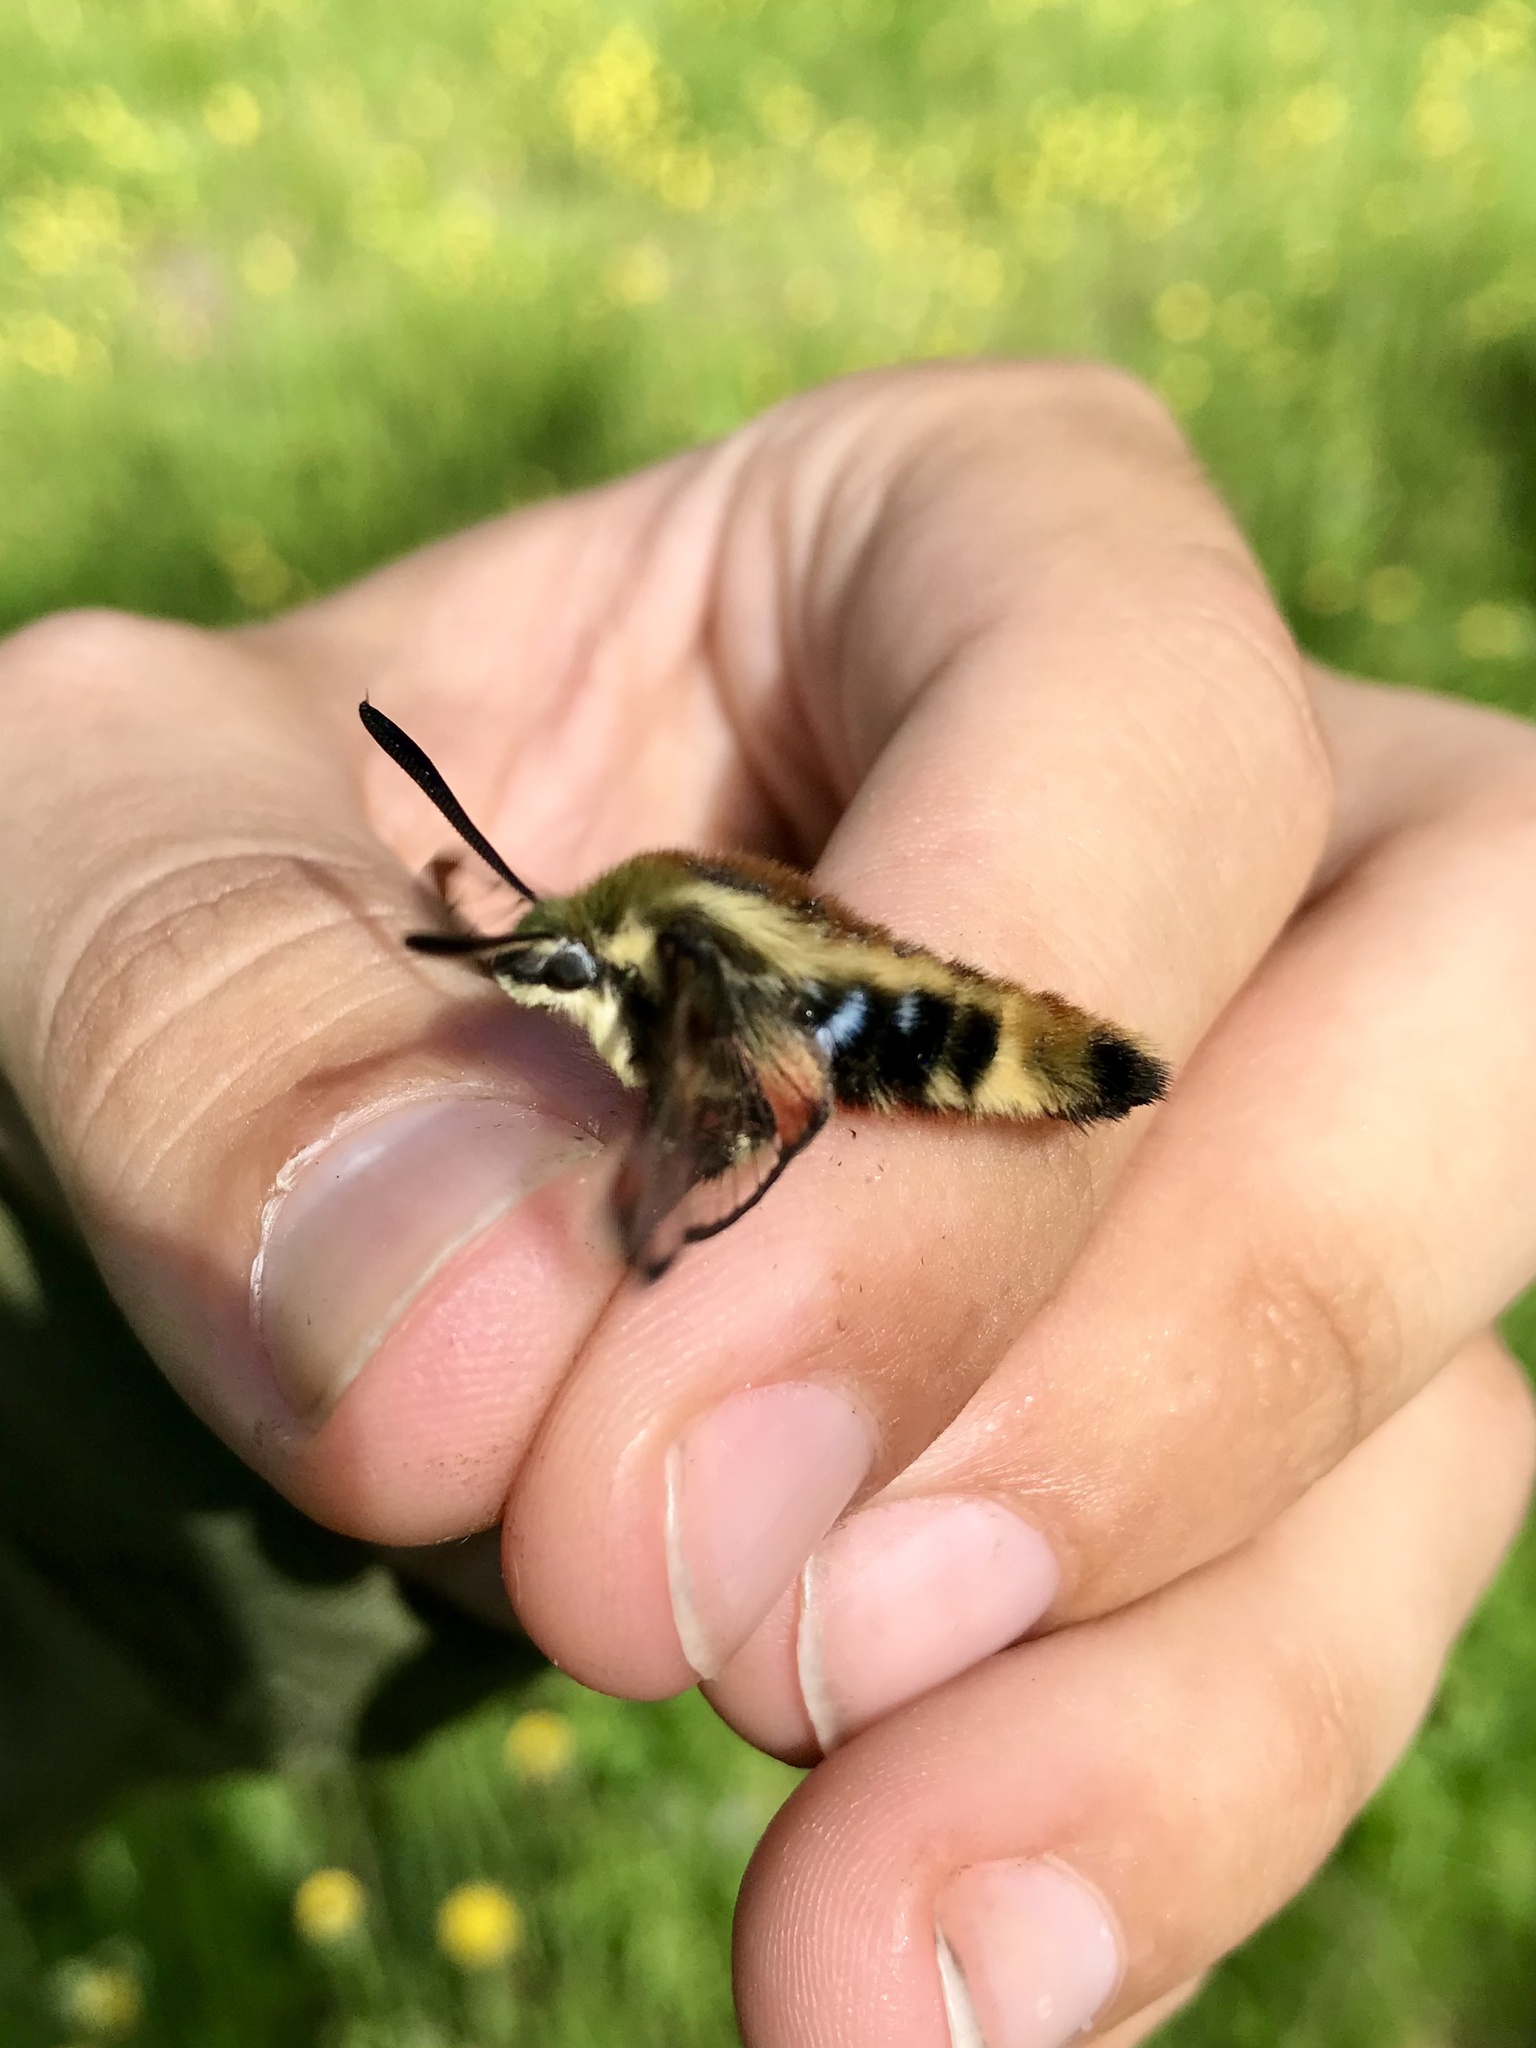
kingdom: Animalia
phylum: Arthropoda
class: Insecta
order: Lepidoptera
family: Sphingidae
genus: Hemaris
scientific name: Hemaris diffinis
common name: Bumblebee moth
